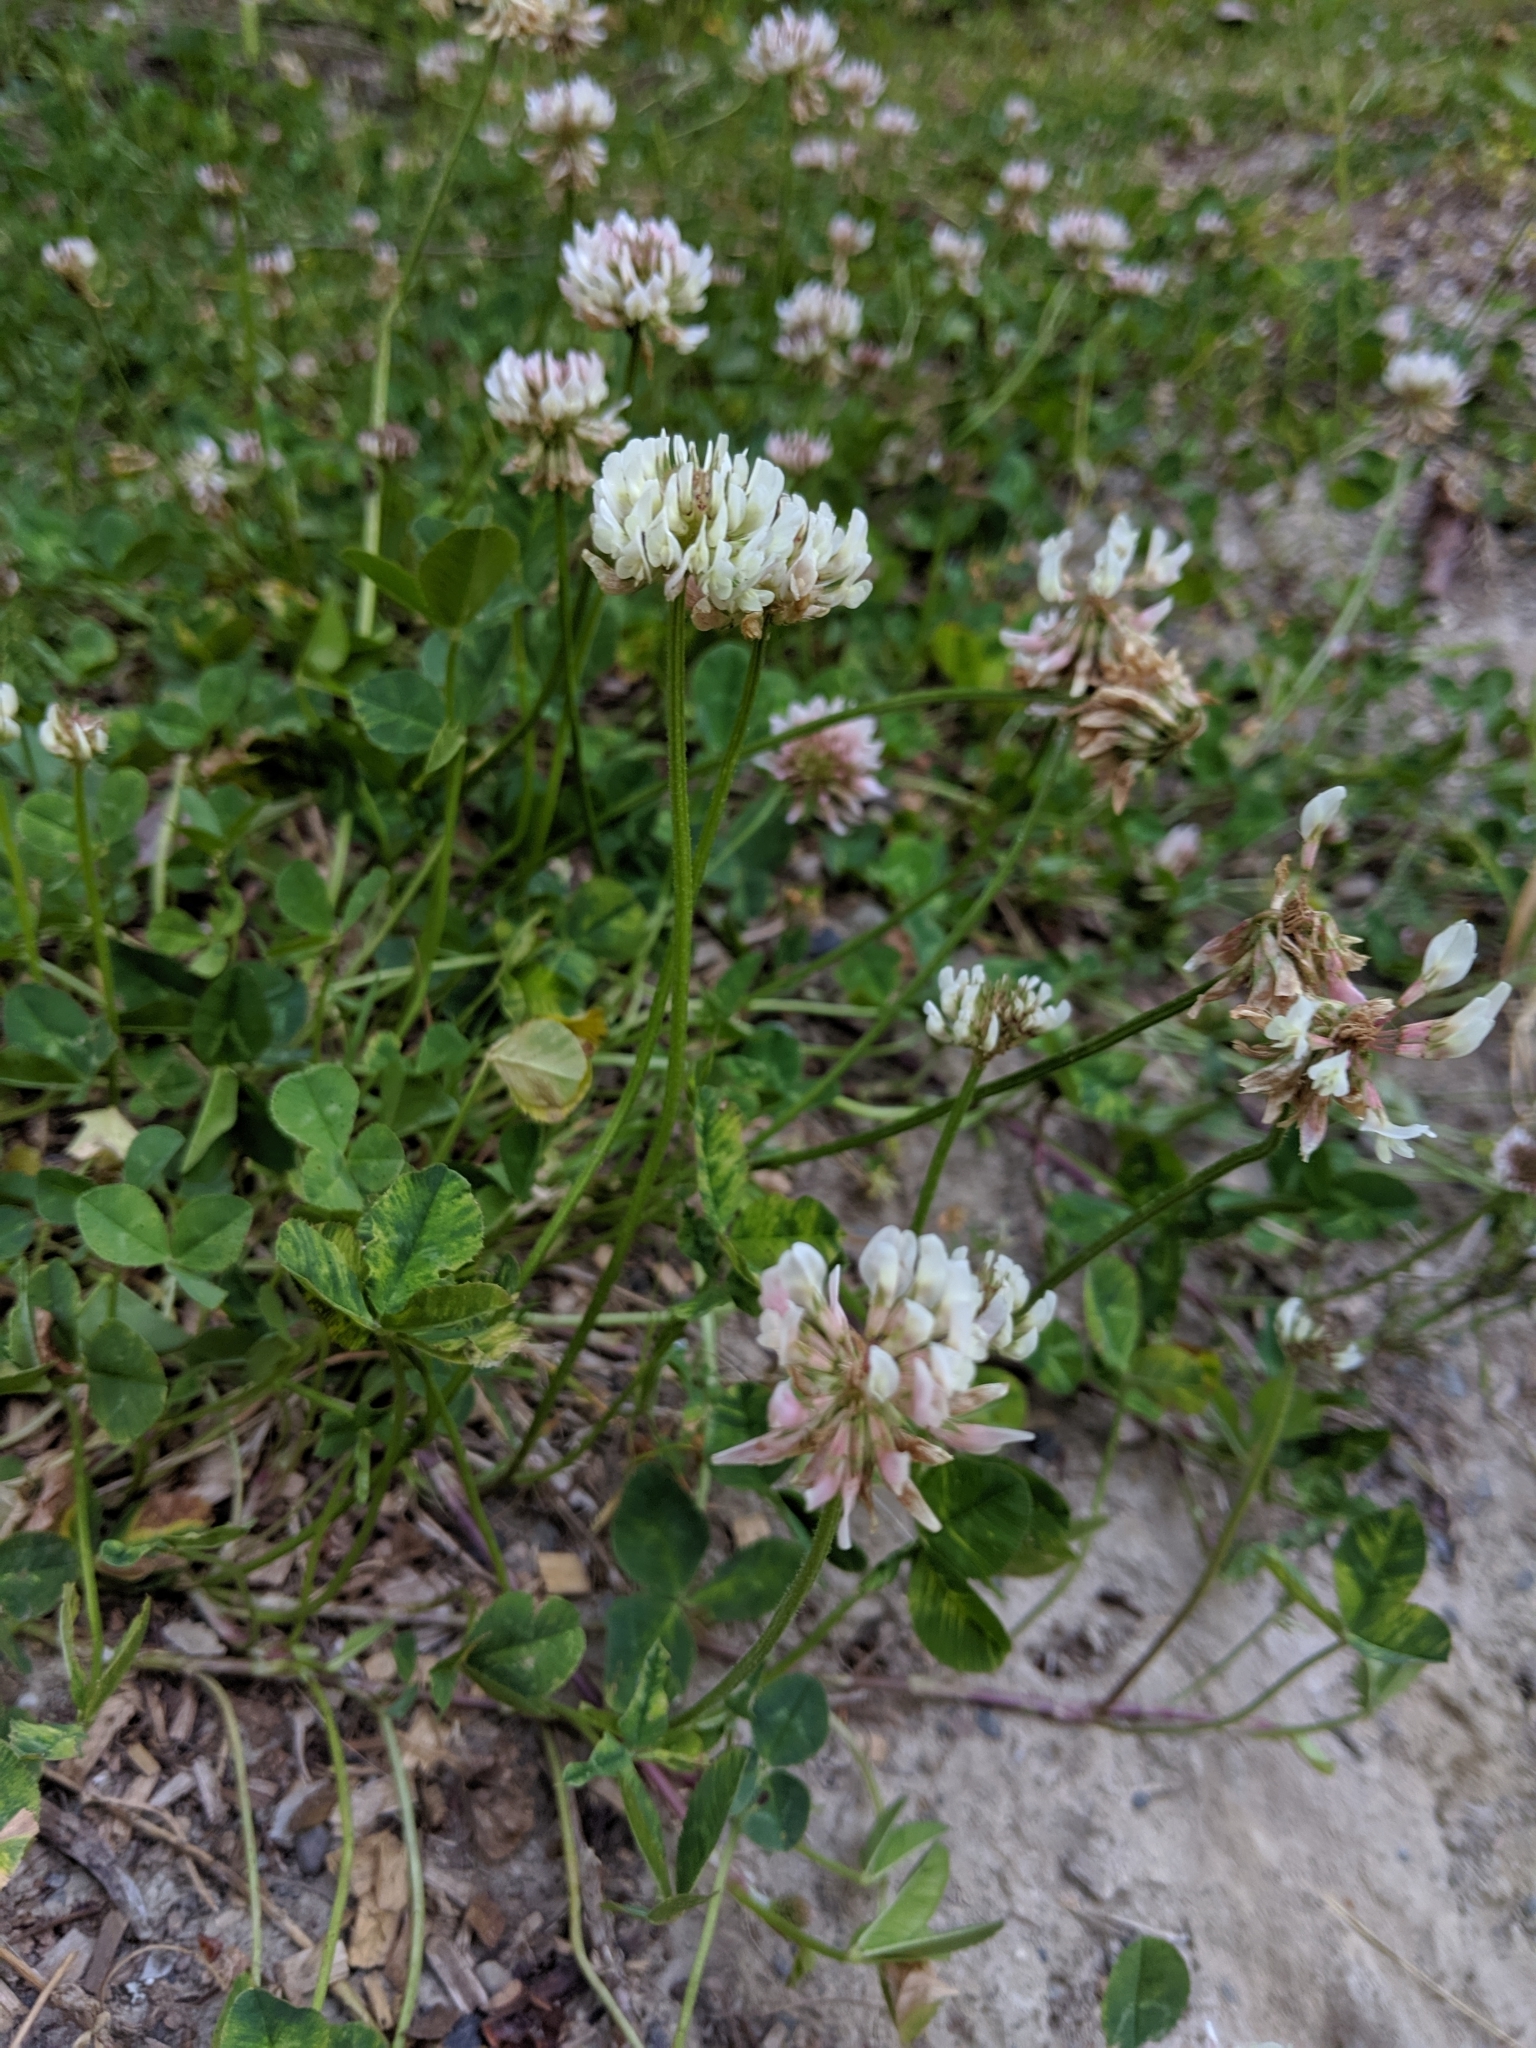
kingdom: Plantae
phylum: Tracheophyta
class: Magnoliopsida
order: Fabales
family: Fabaceae
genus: Trifolium
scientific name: Trifolium repens
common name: White clover
